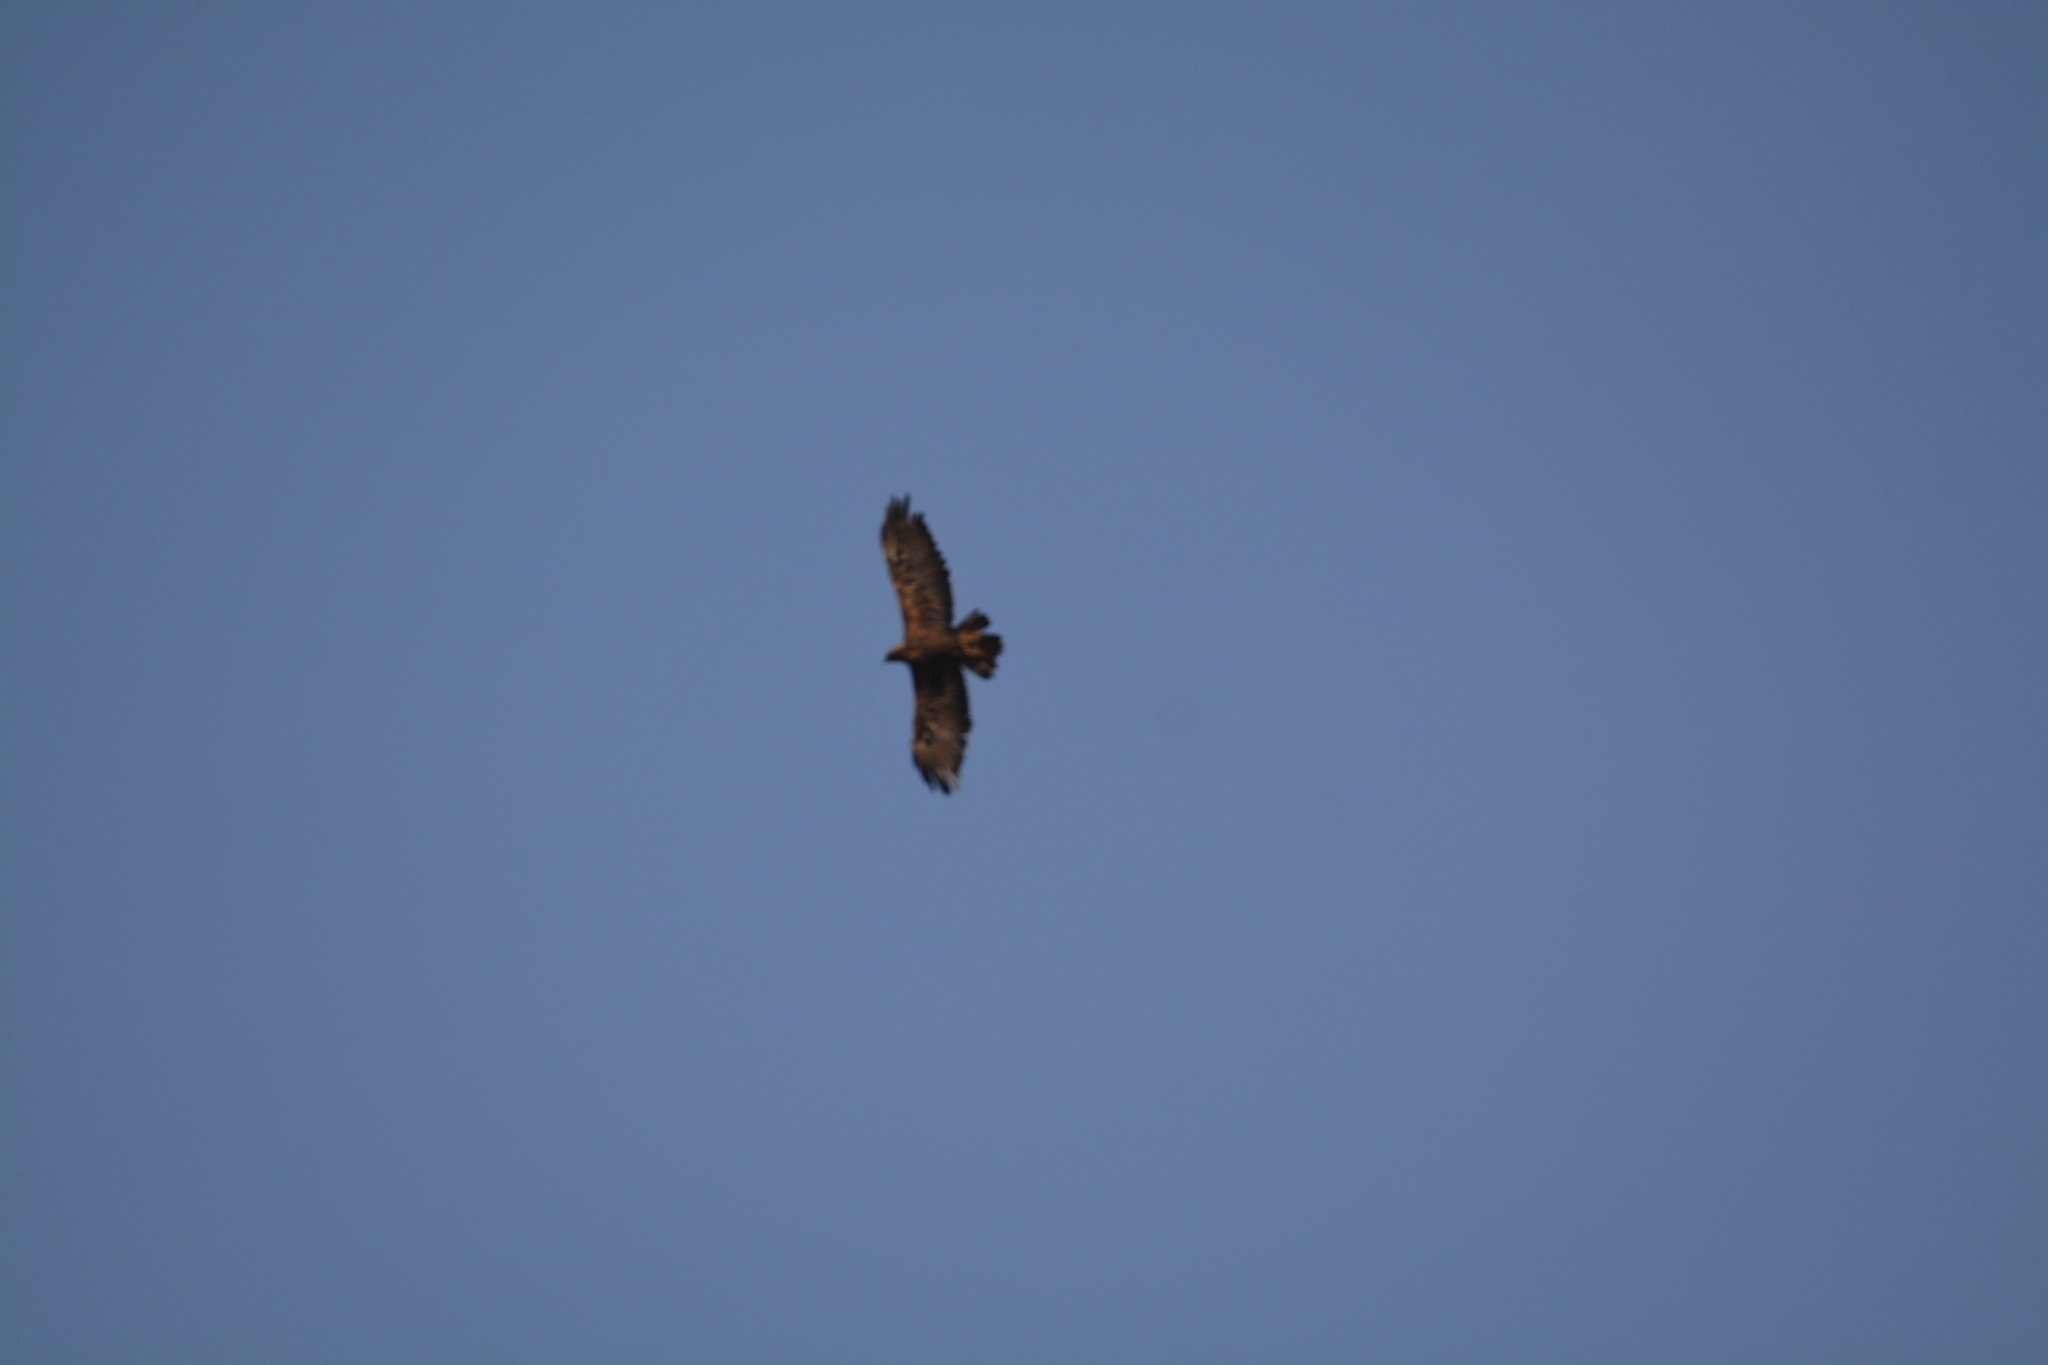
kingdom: Animalia
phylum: Chordata
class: Aves
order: Accipitriformes
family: Accipitridae
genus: Aquila
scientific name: Aquila chrysaetos
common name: Golden eagle
